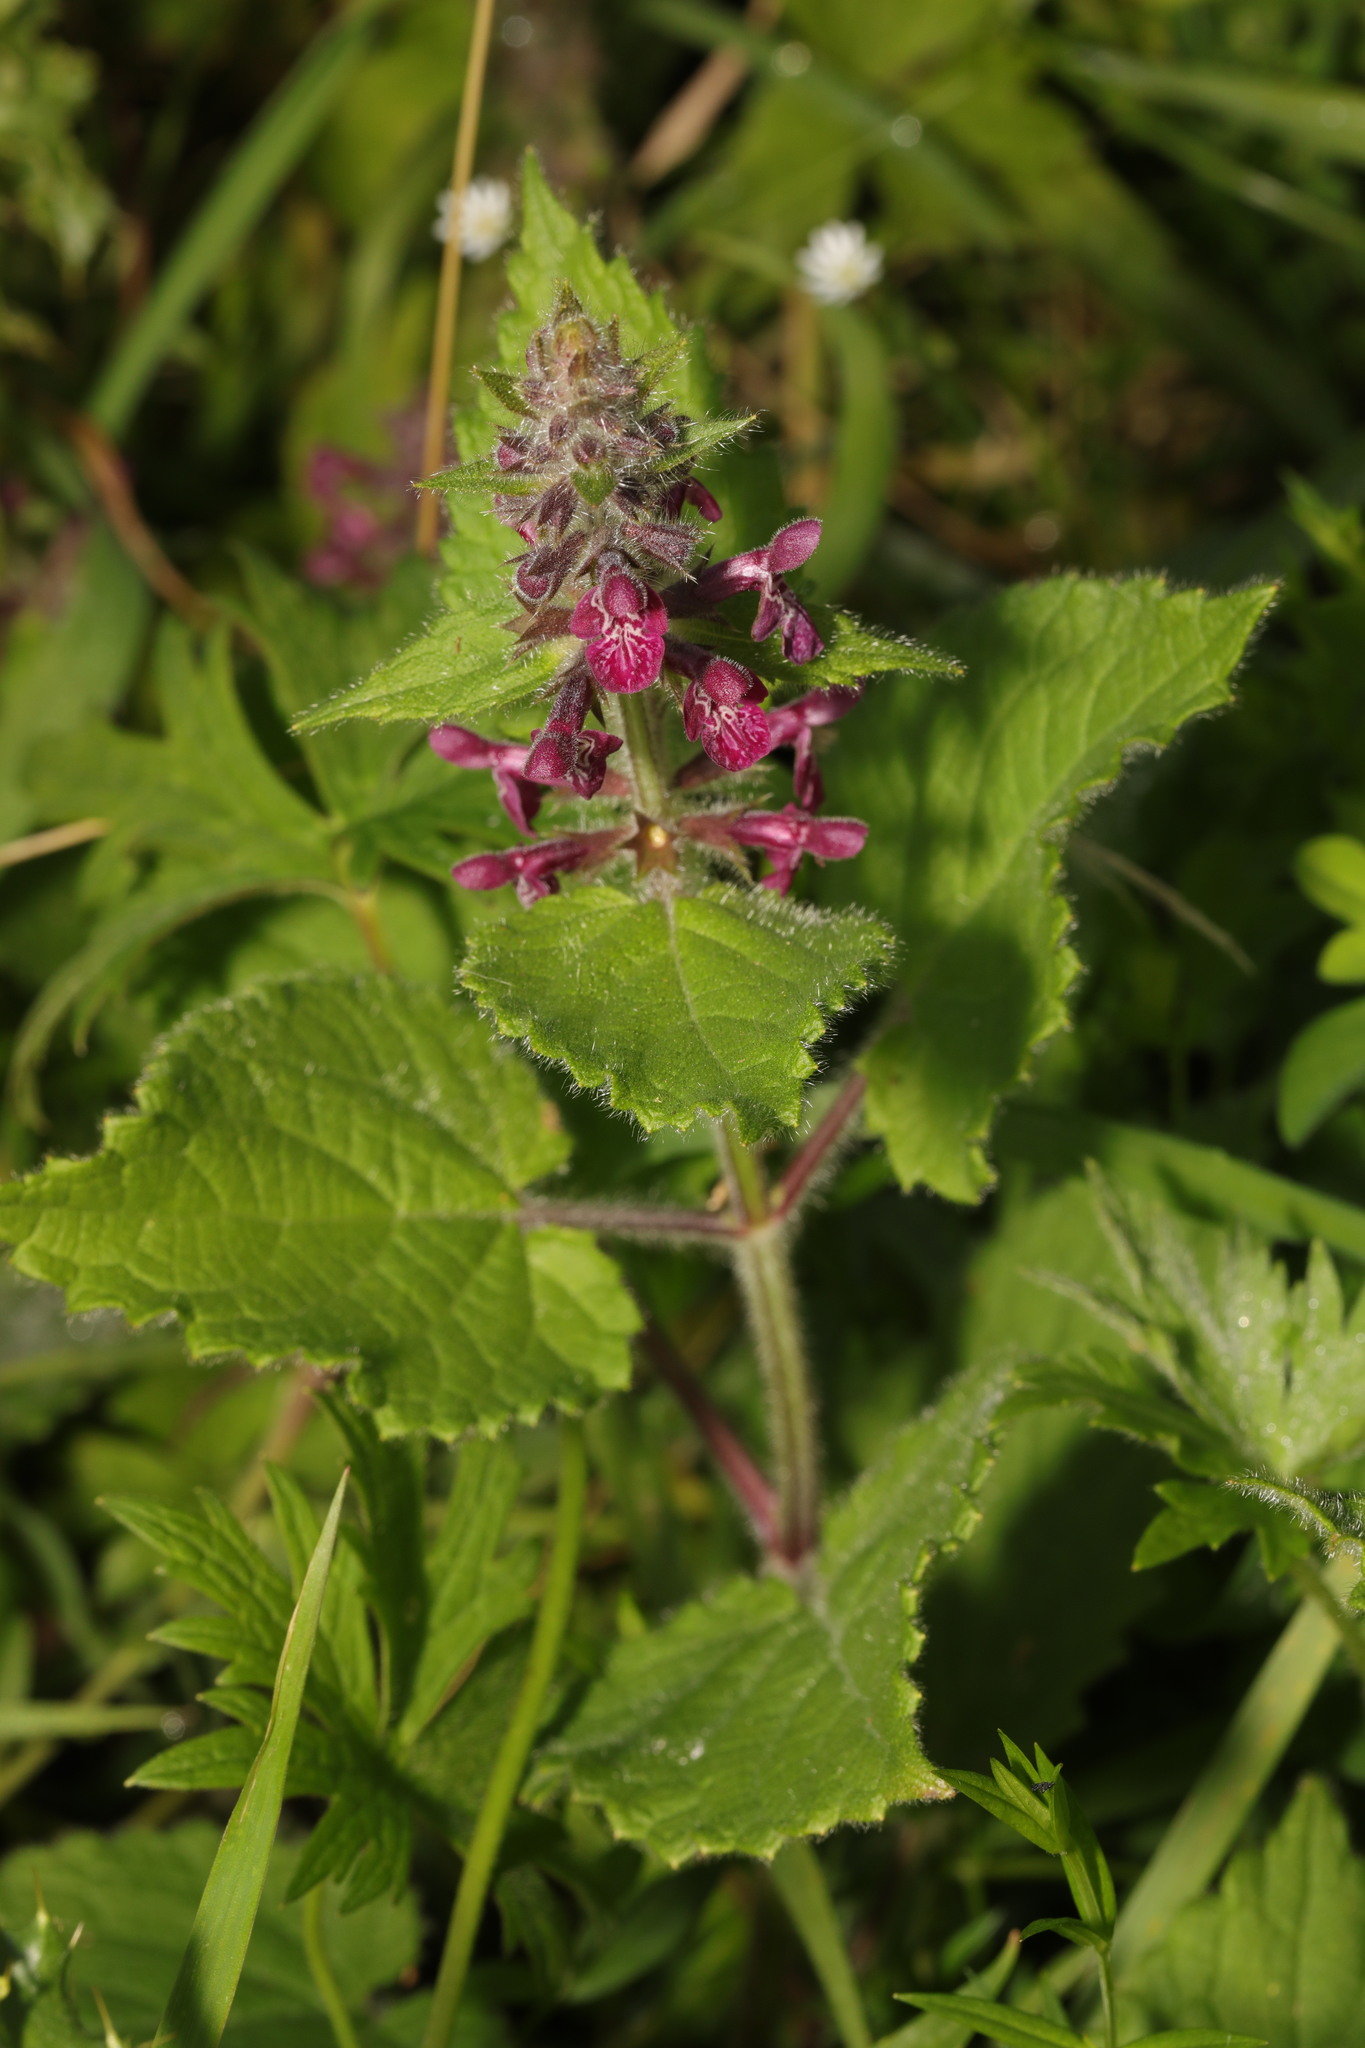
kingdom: Plantae
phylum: Tracheophyta
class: Magnoliopsida
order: Lamiales
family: Lamiaceae
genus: Stachys
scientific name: Stachys sylvatica
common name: Hedge woundwort
